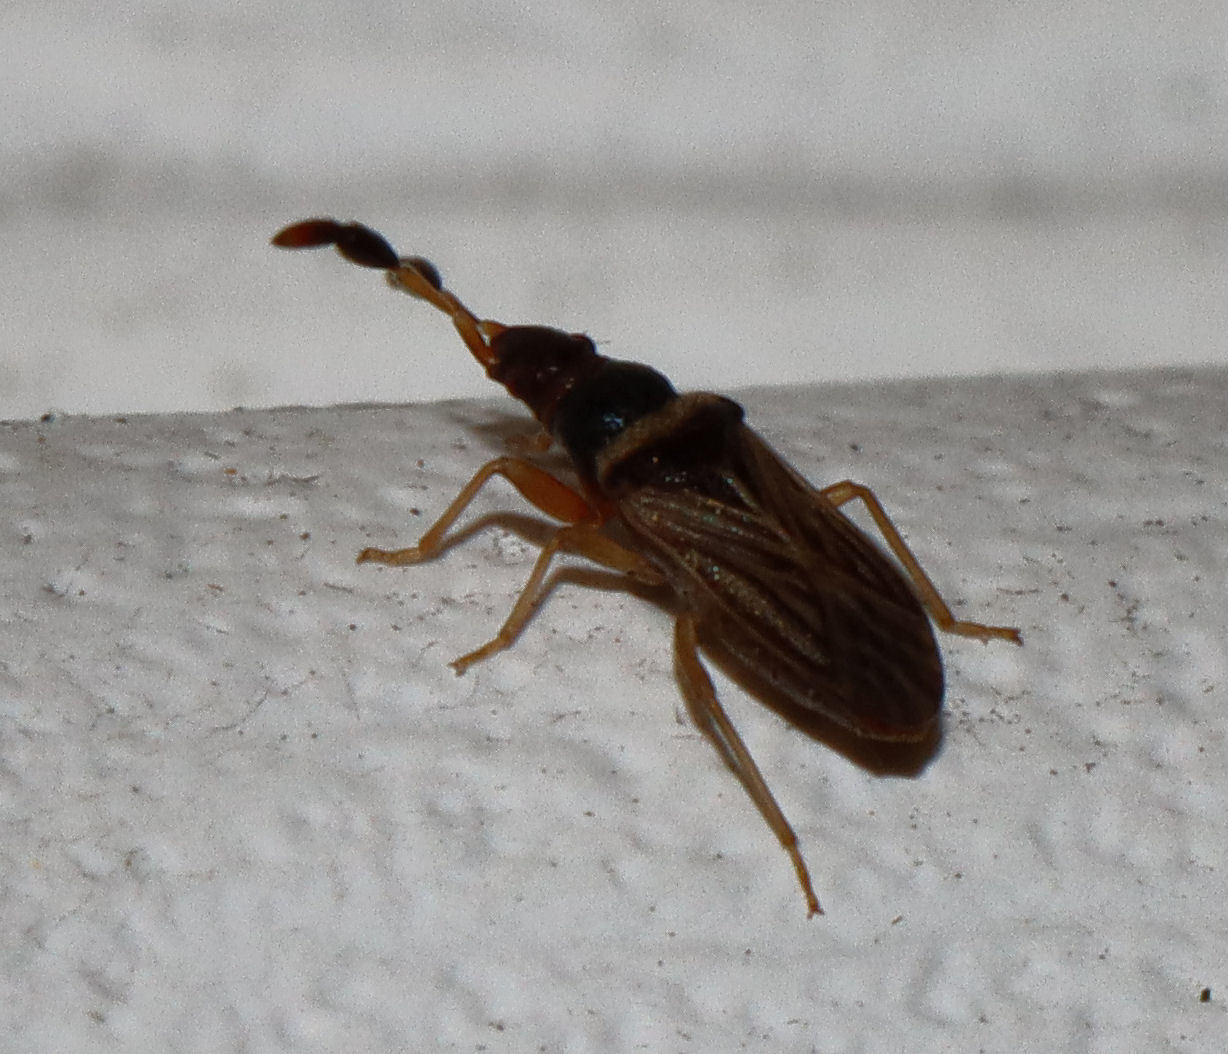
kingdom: Animalia
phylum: Arthropoda
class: Insecta
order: Hemiptera
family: Rhyparochromidae
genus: Ptochiomera
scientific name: Ptochiomera nodosa
